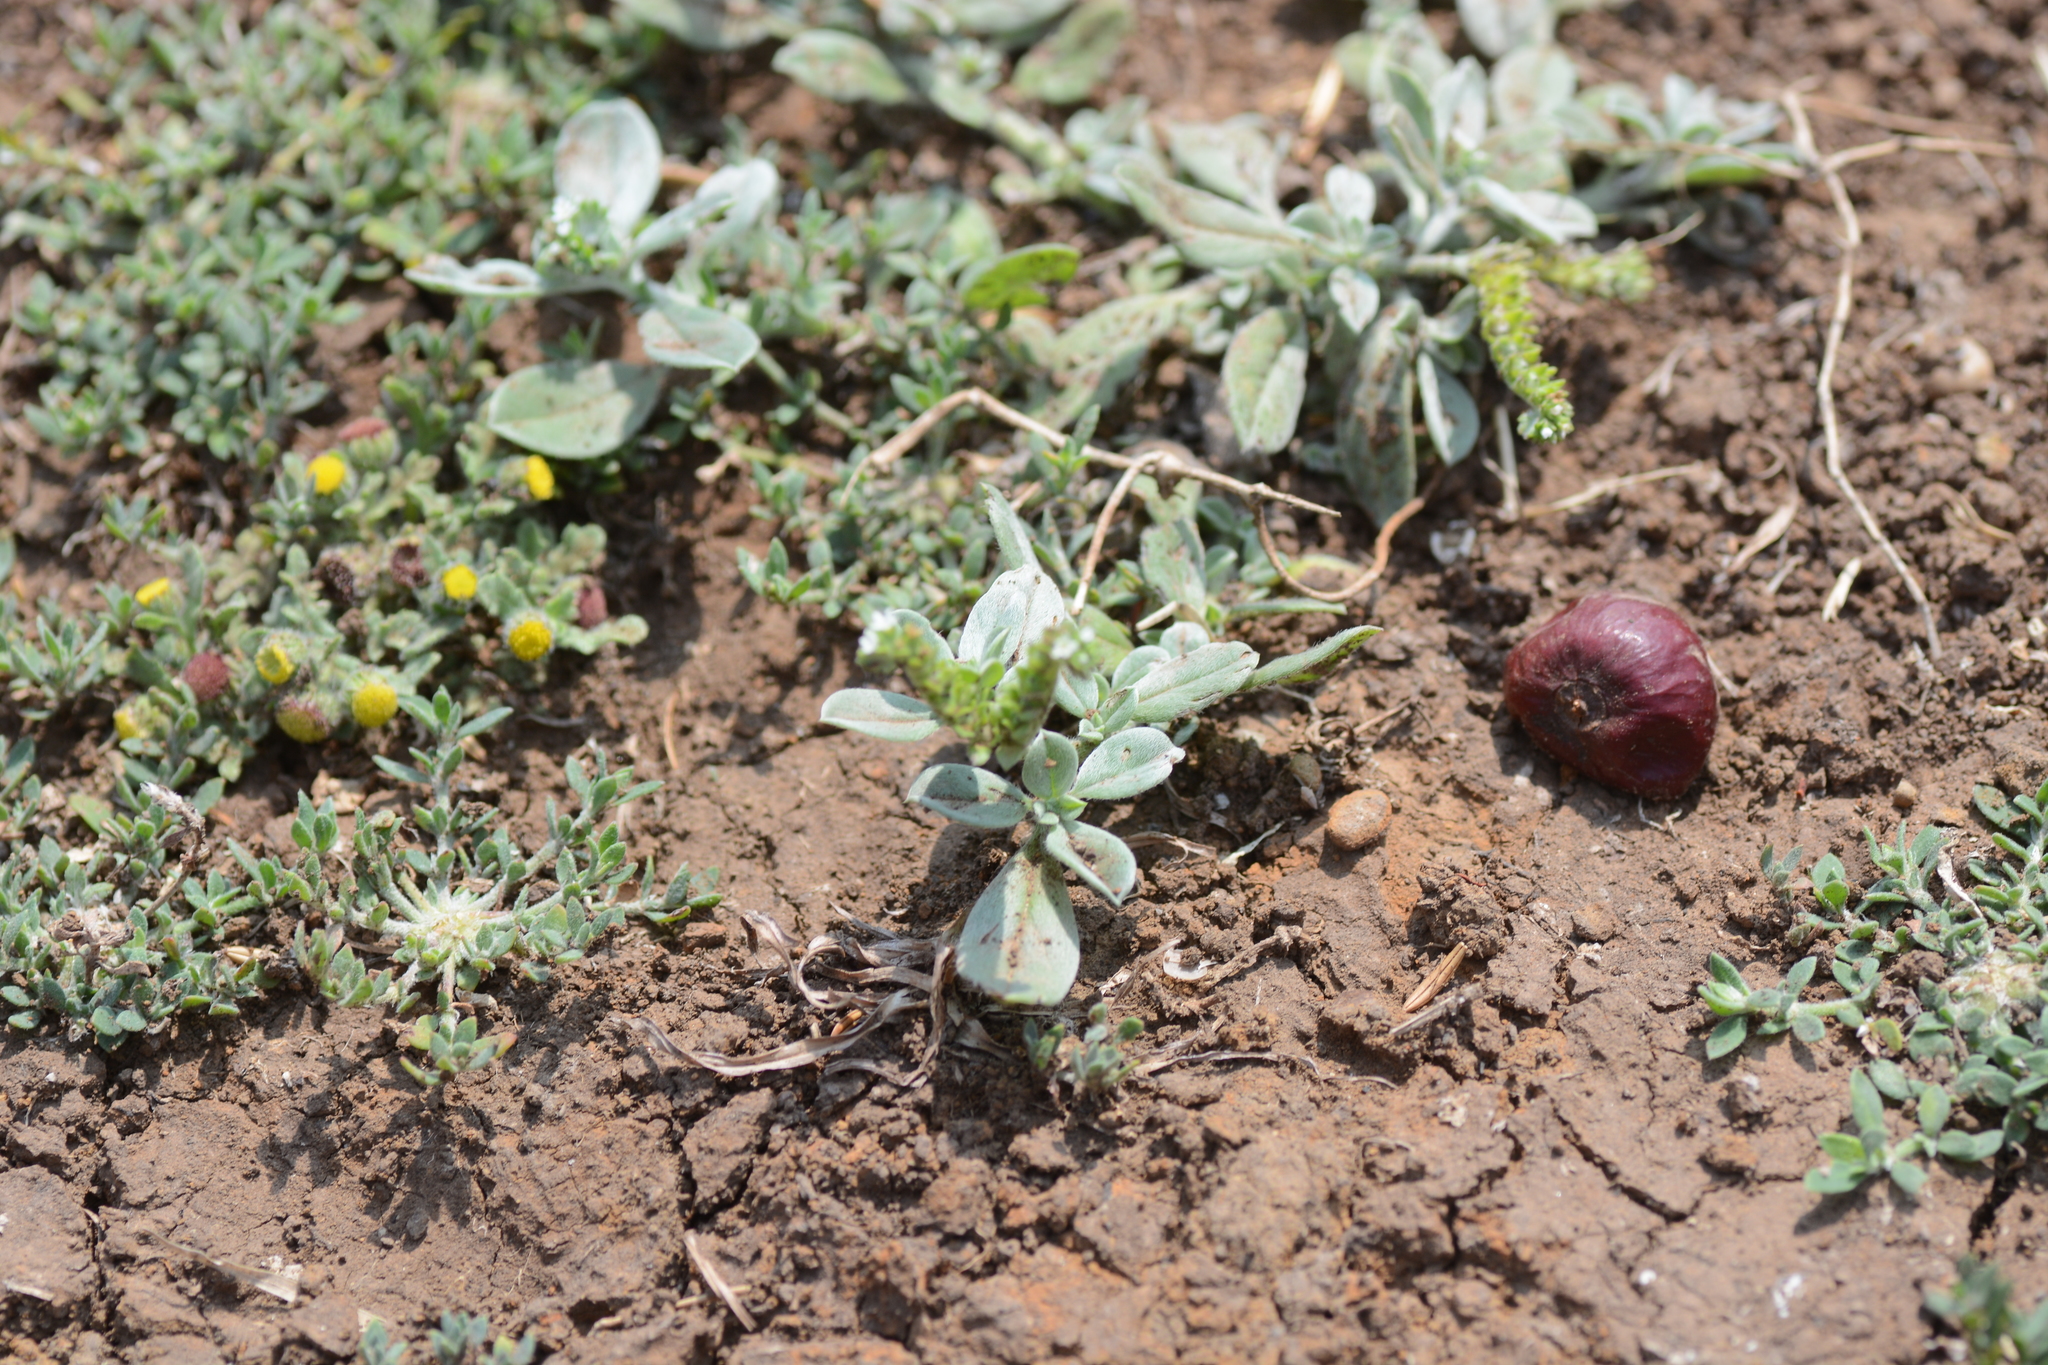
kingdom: Plantae
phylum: Tracheophyta
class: Magnoliopsida
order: Boraginales
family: Heliotropiaceae
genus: Euploca
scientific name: Euploca ovalifolia
